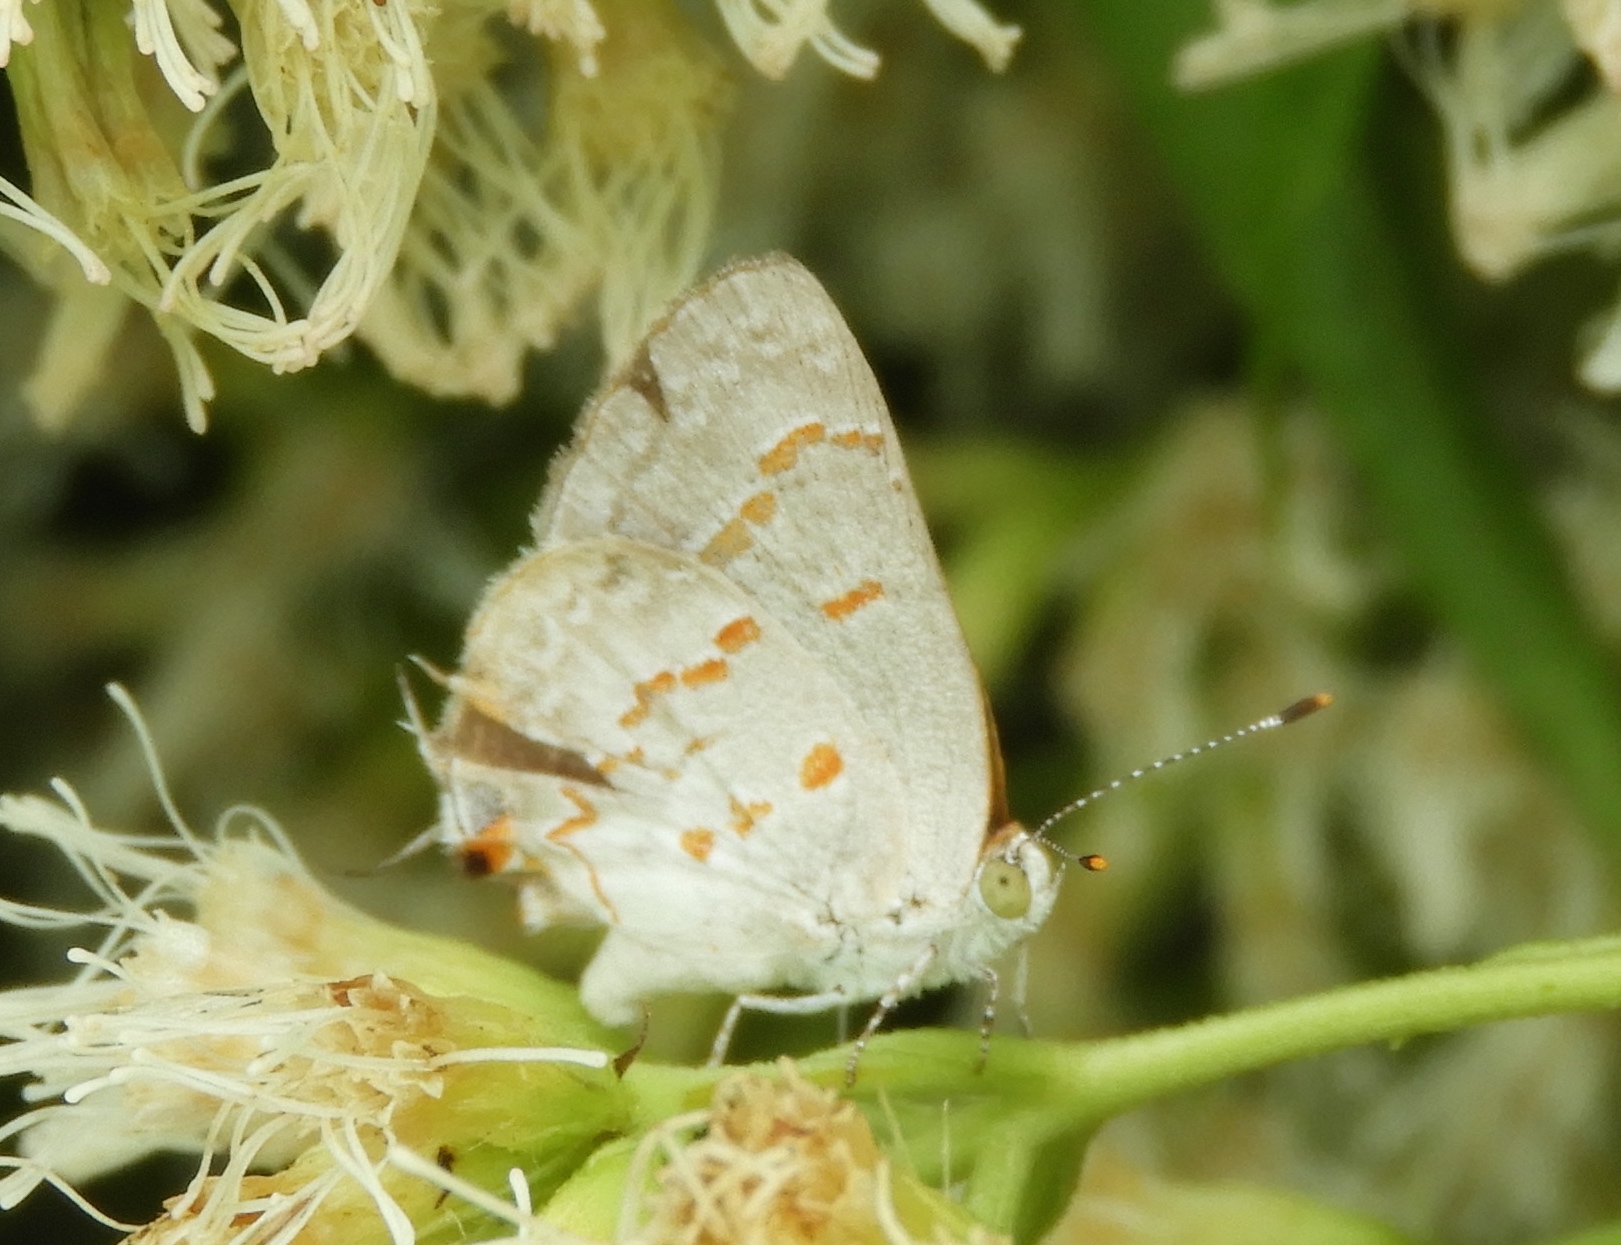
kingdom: Animalia
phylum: Arthropoda
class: Insecta
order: Lepidoptera
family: Lycaenidae
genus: Ministrymon
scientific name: Ministrymon clytie
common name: Clytie ministreak
